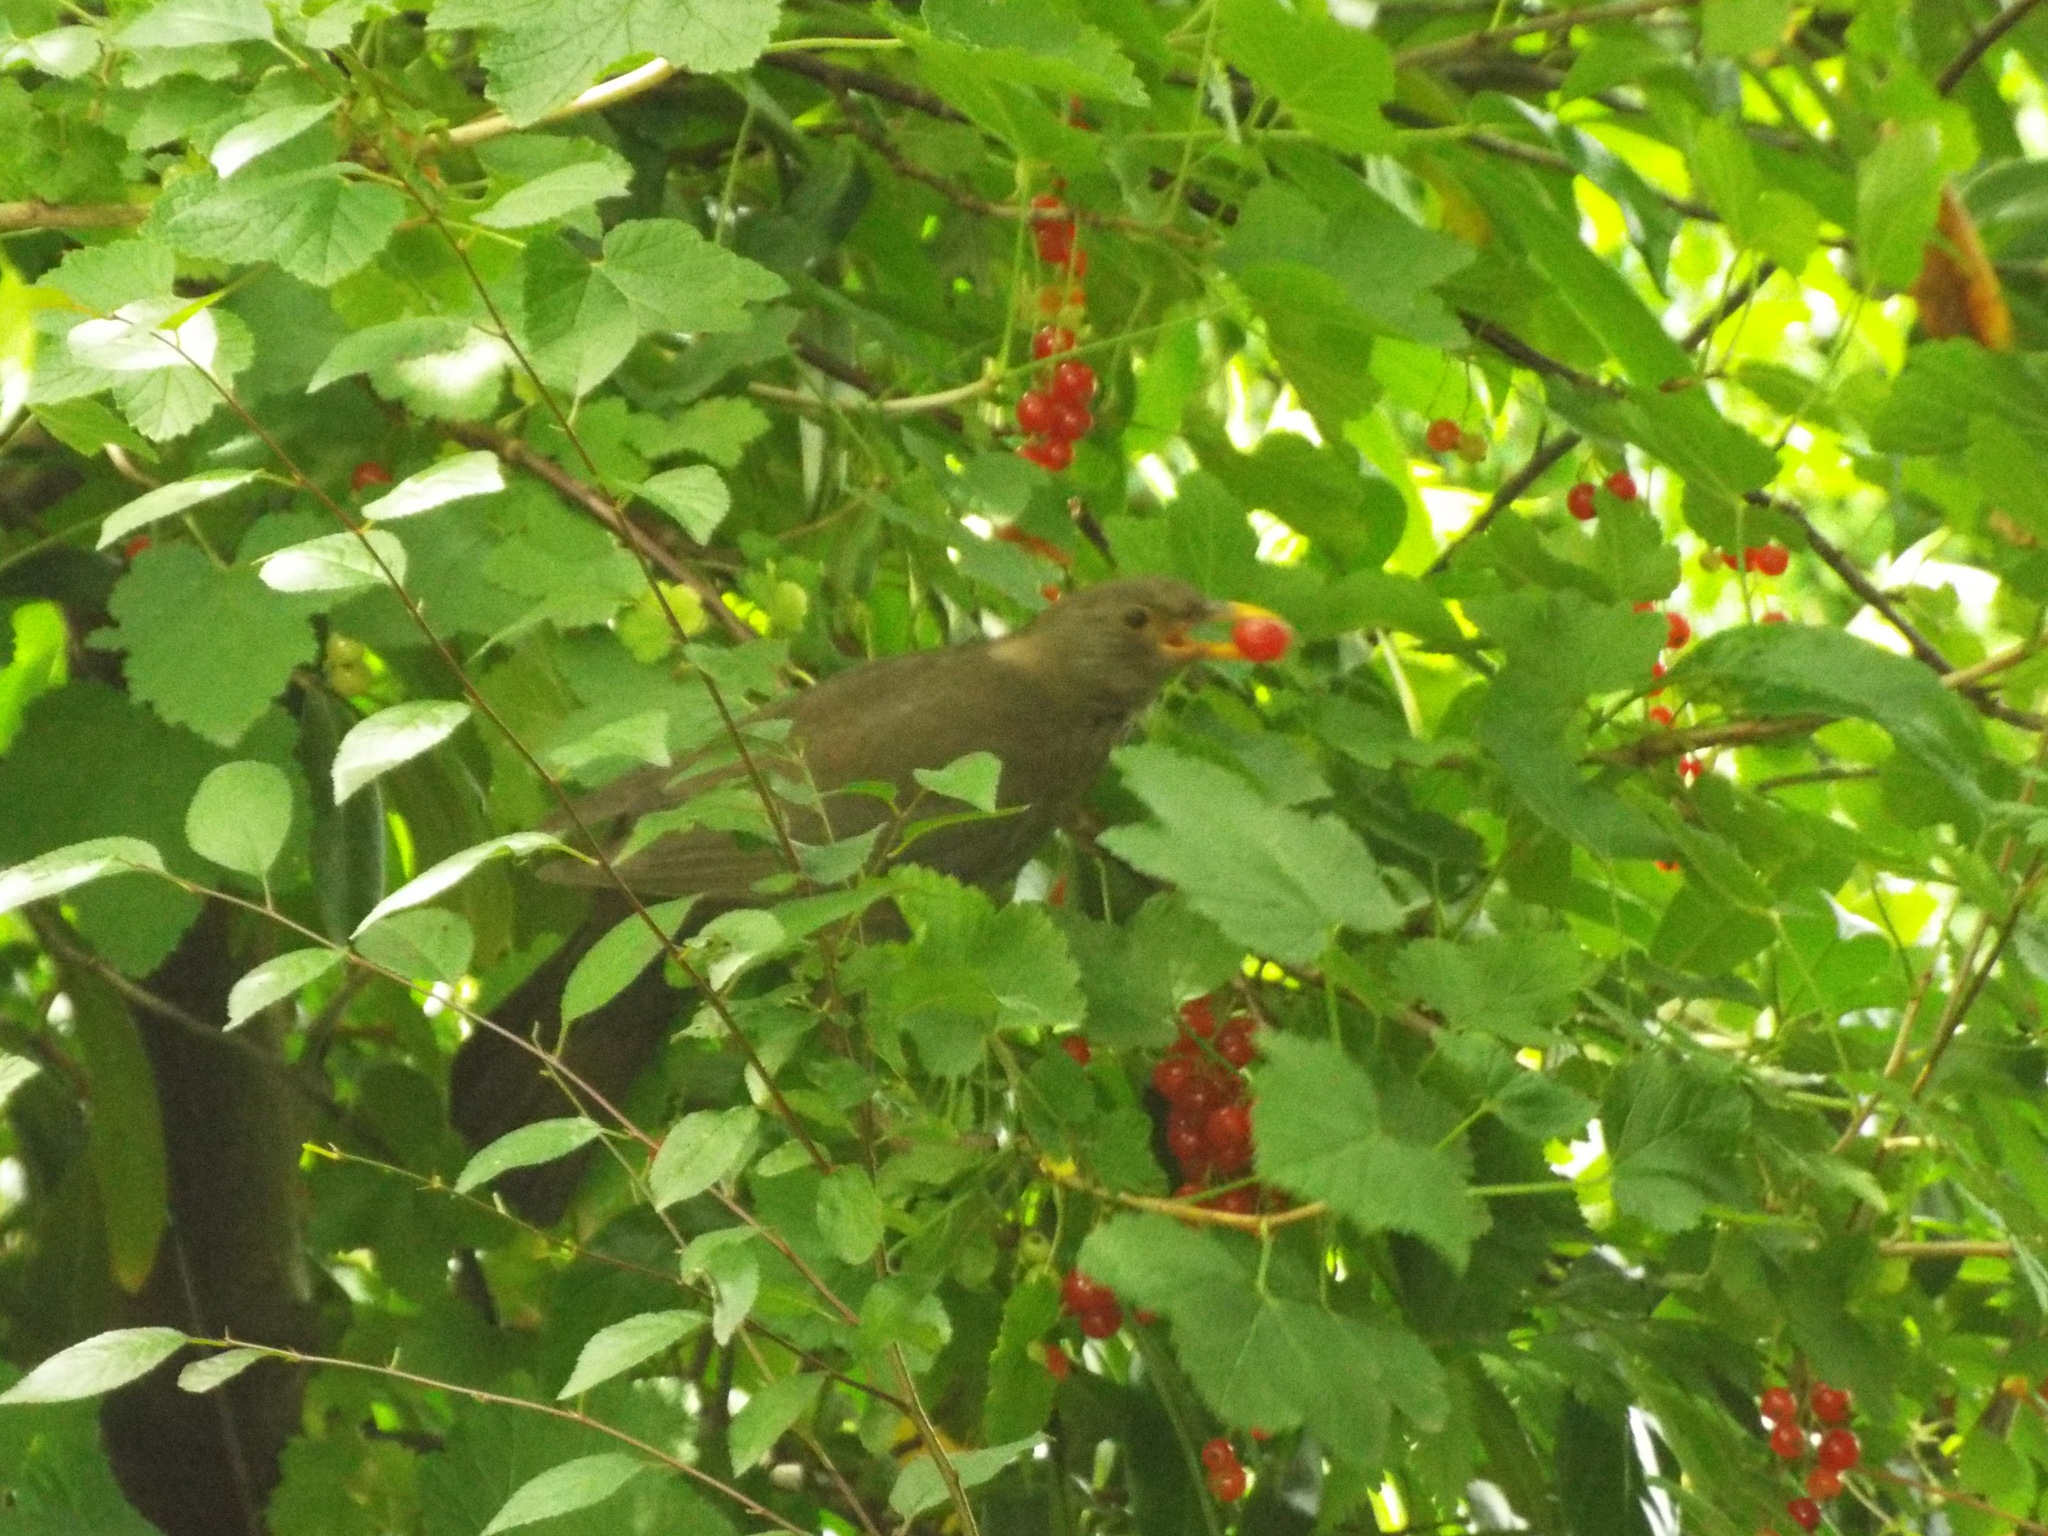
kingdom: Animalia
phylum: Chordata
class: Aves
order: Passeriformes
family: Turdidae
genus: Turdus
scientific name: Turdus merula
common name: Common blackbird
